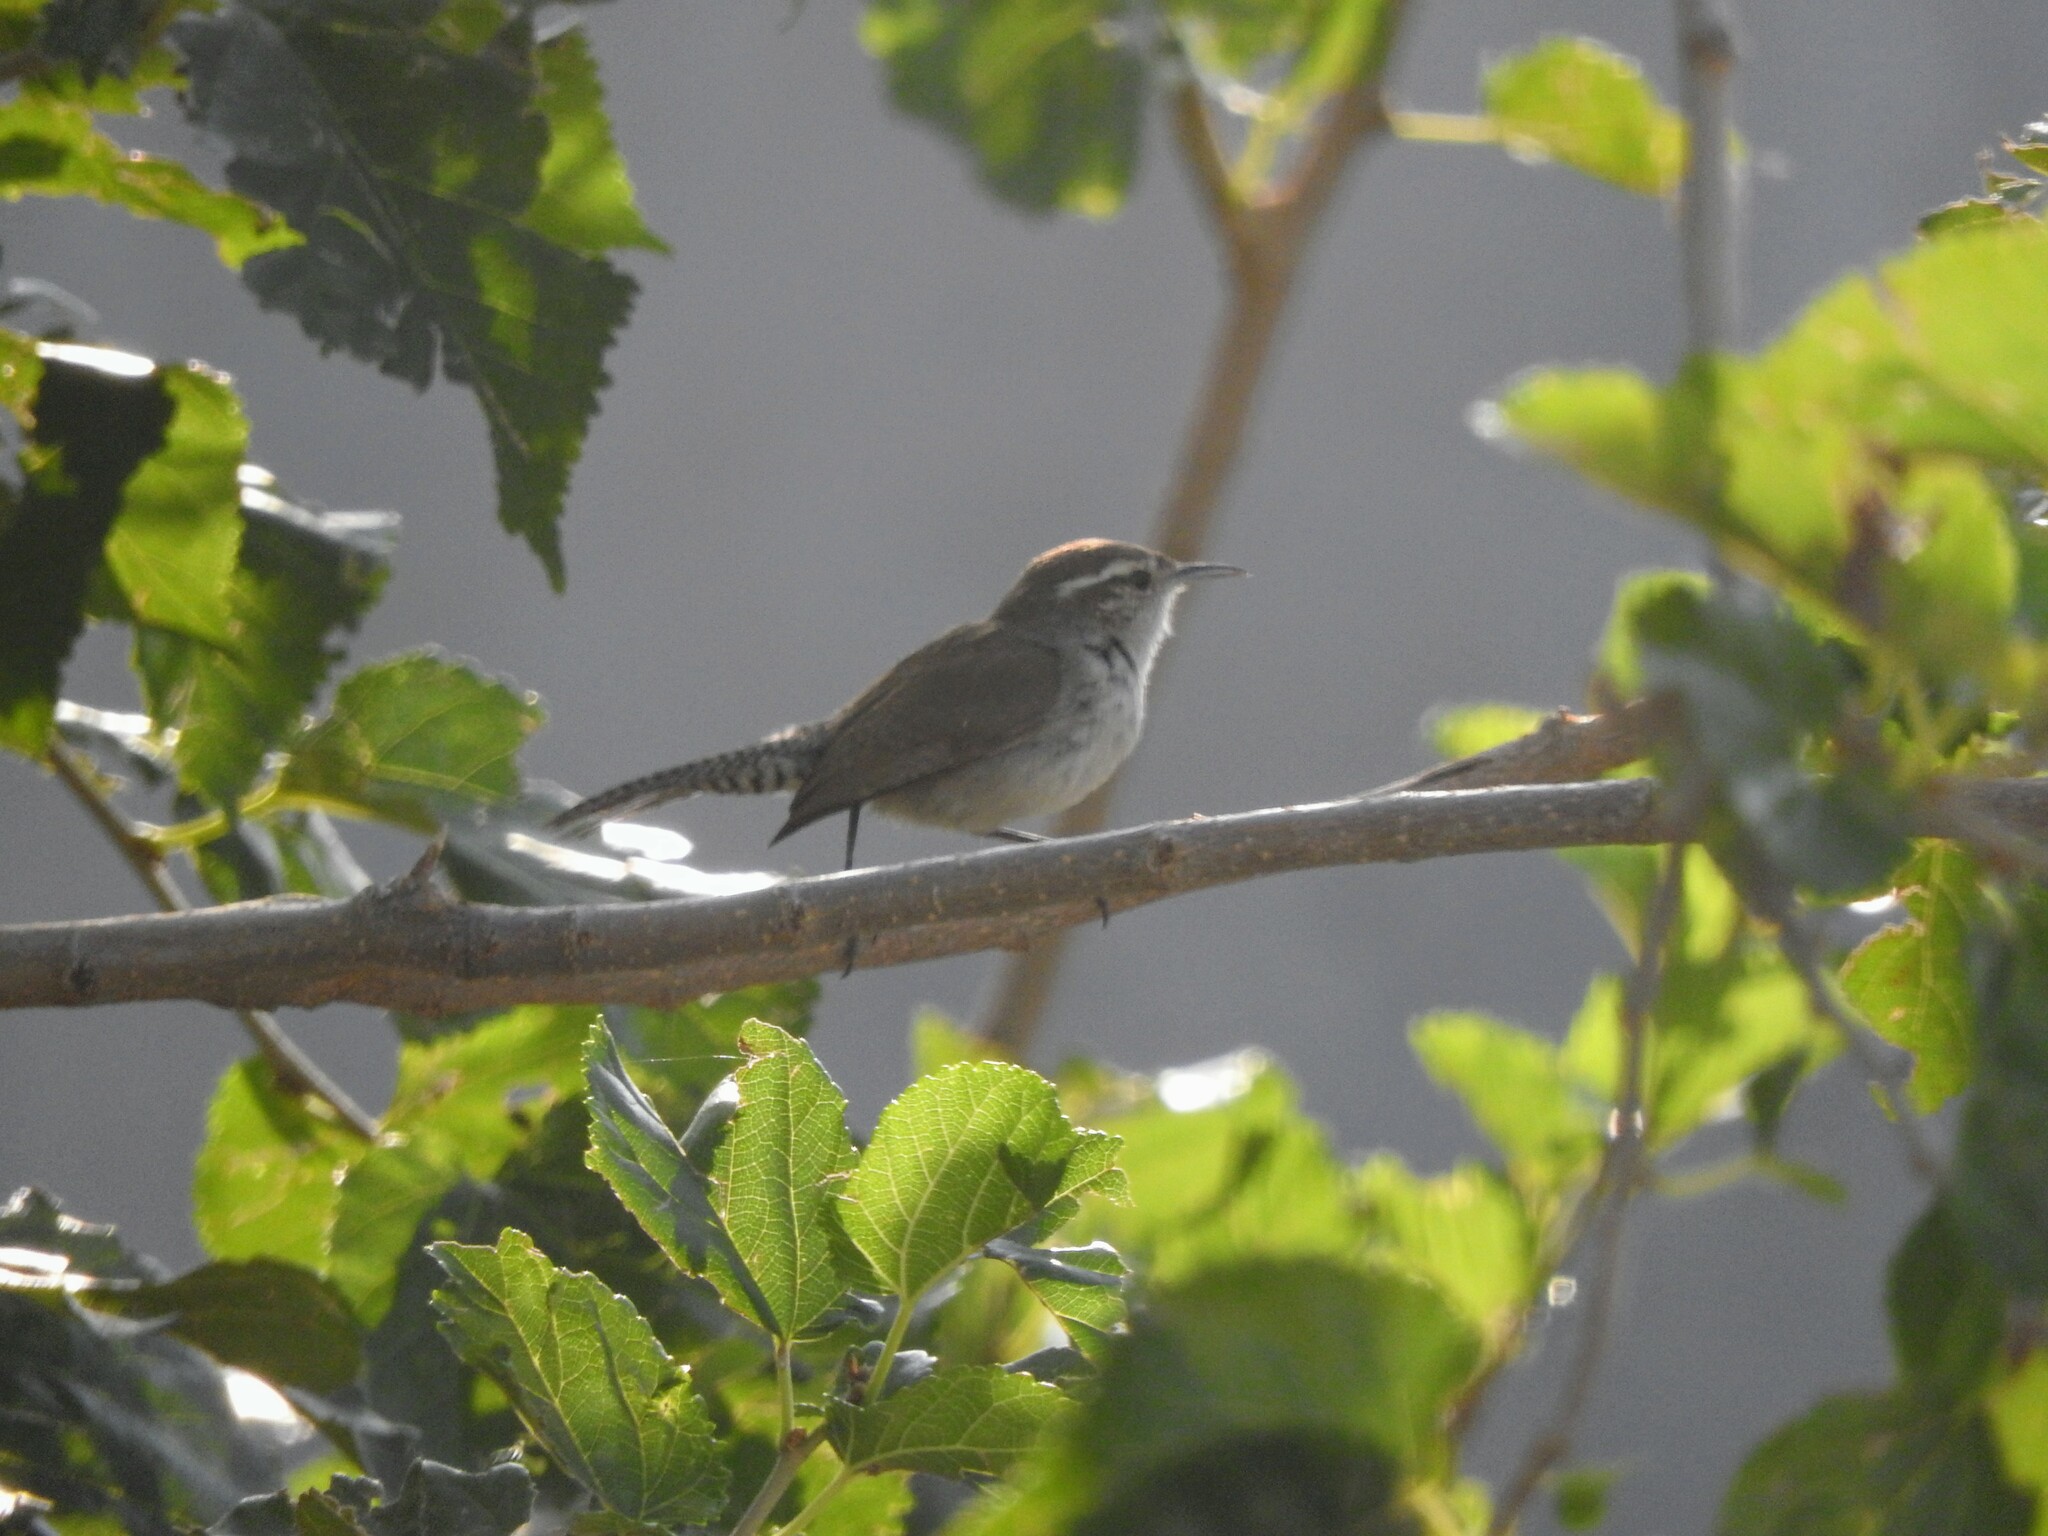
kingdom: Animalia
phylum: Chordata
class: Aves
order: Passeriformes
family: Troglodytidae
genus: Thryomanes
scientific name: Thryomanes bewickii
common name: Bewick's wren
